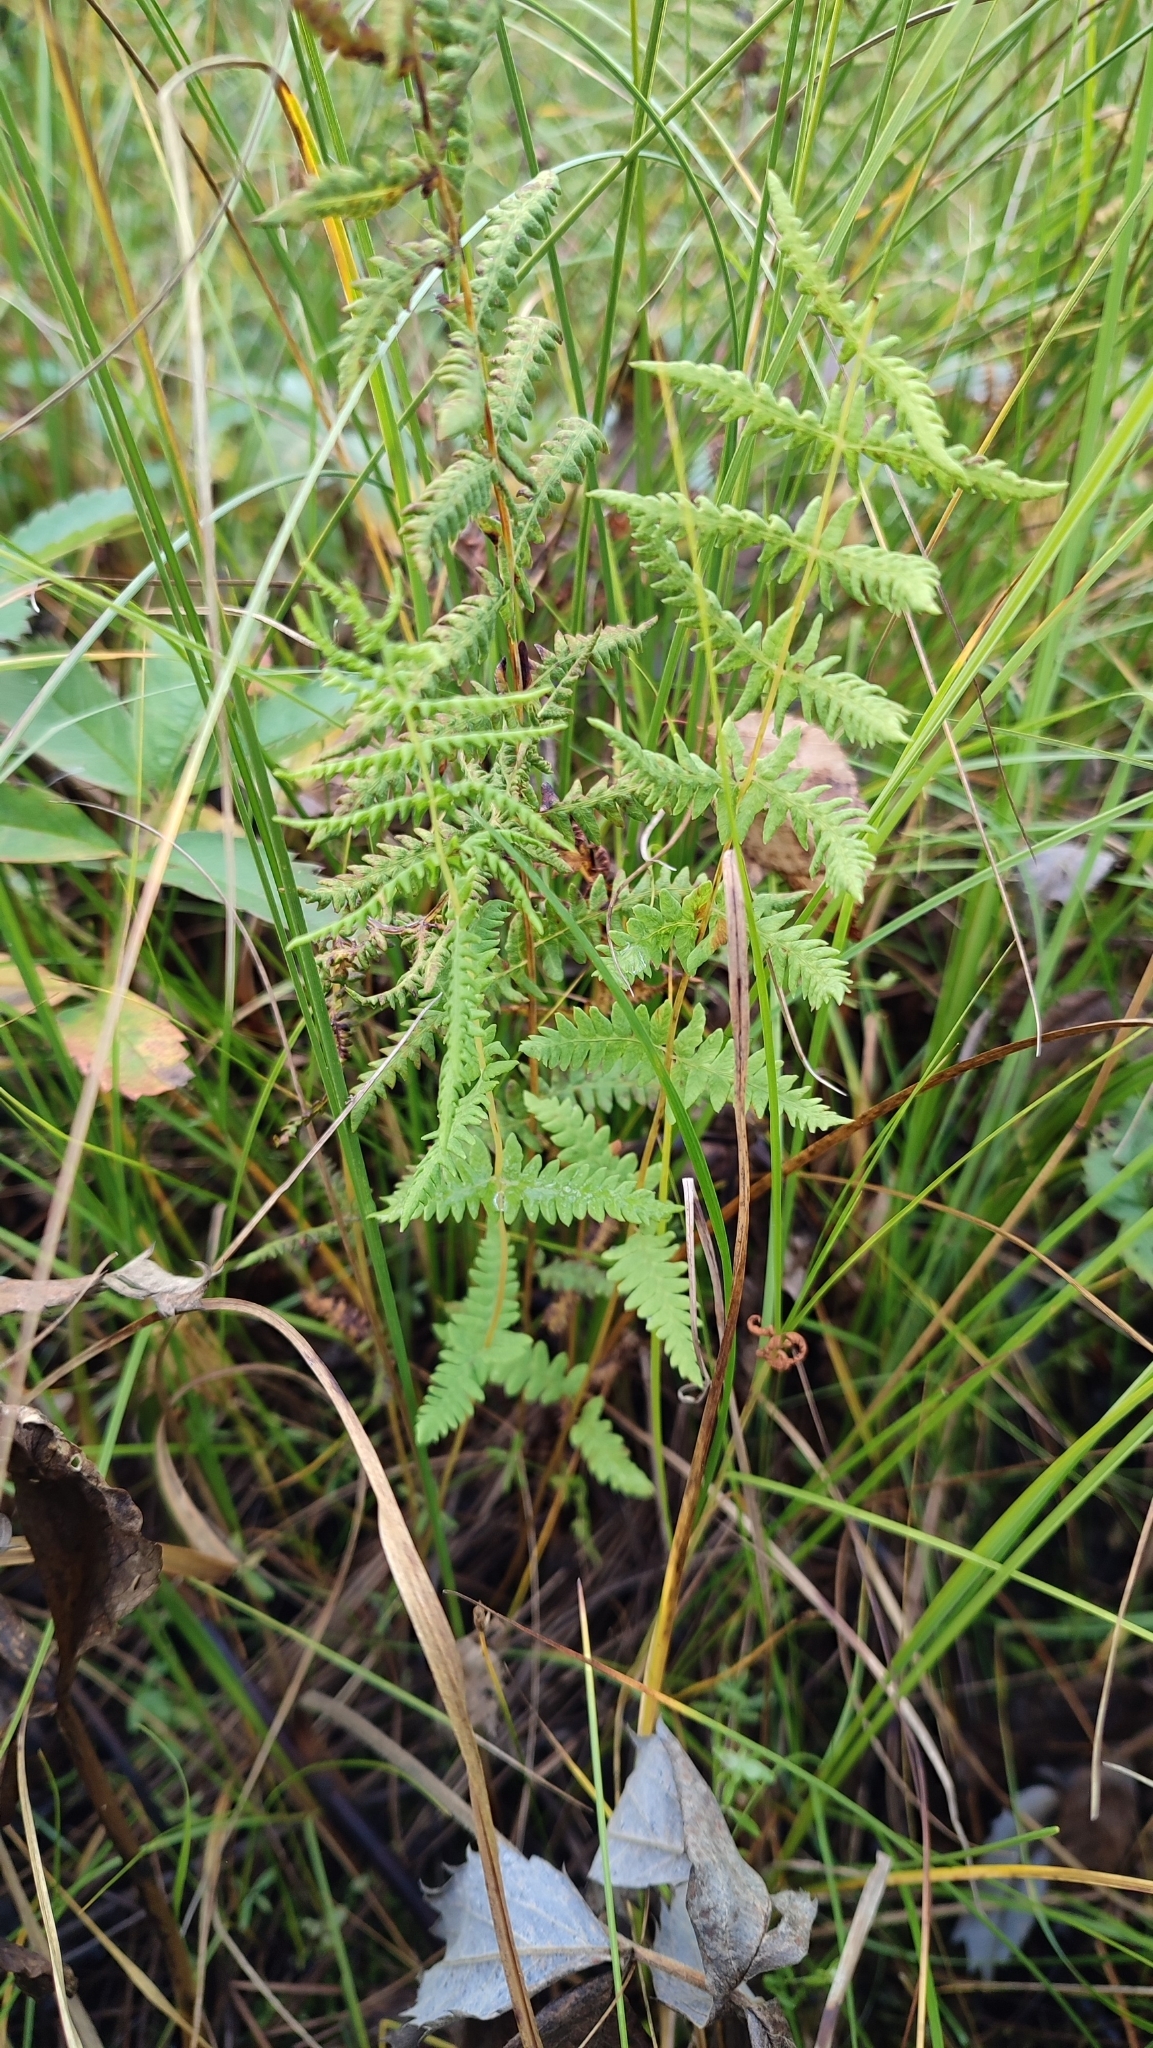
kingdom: Plantae
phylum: Tracheophyta
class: Polypodiopsida
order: Polypodiales
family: Thelypteridaceae
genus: Thelypteris
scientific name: Thelypteris palustris
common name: Marsh fern
